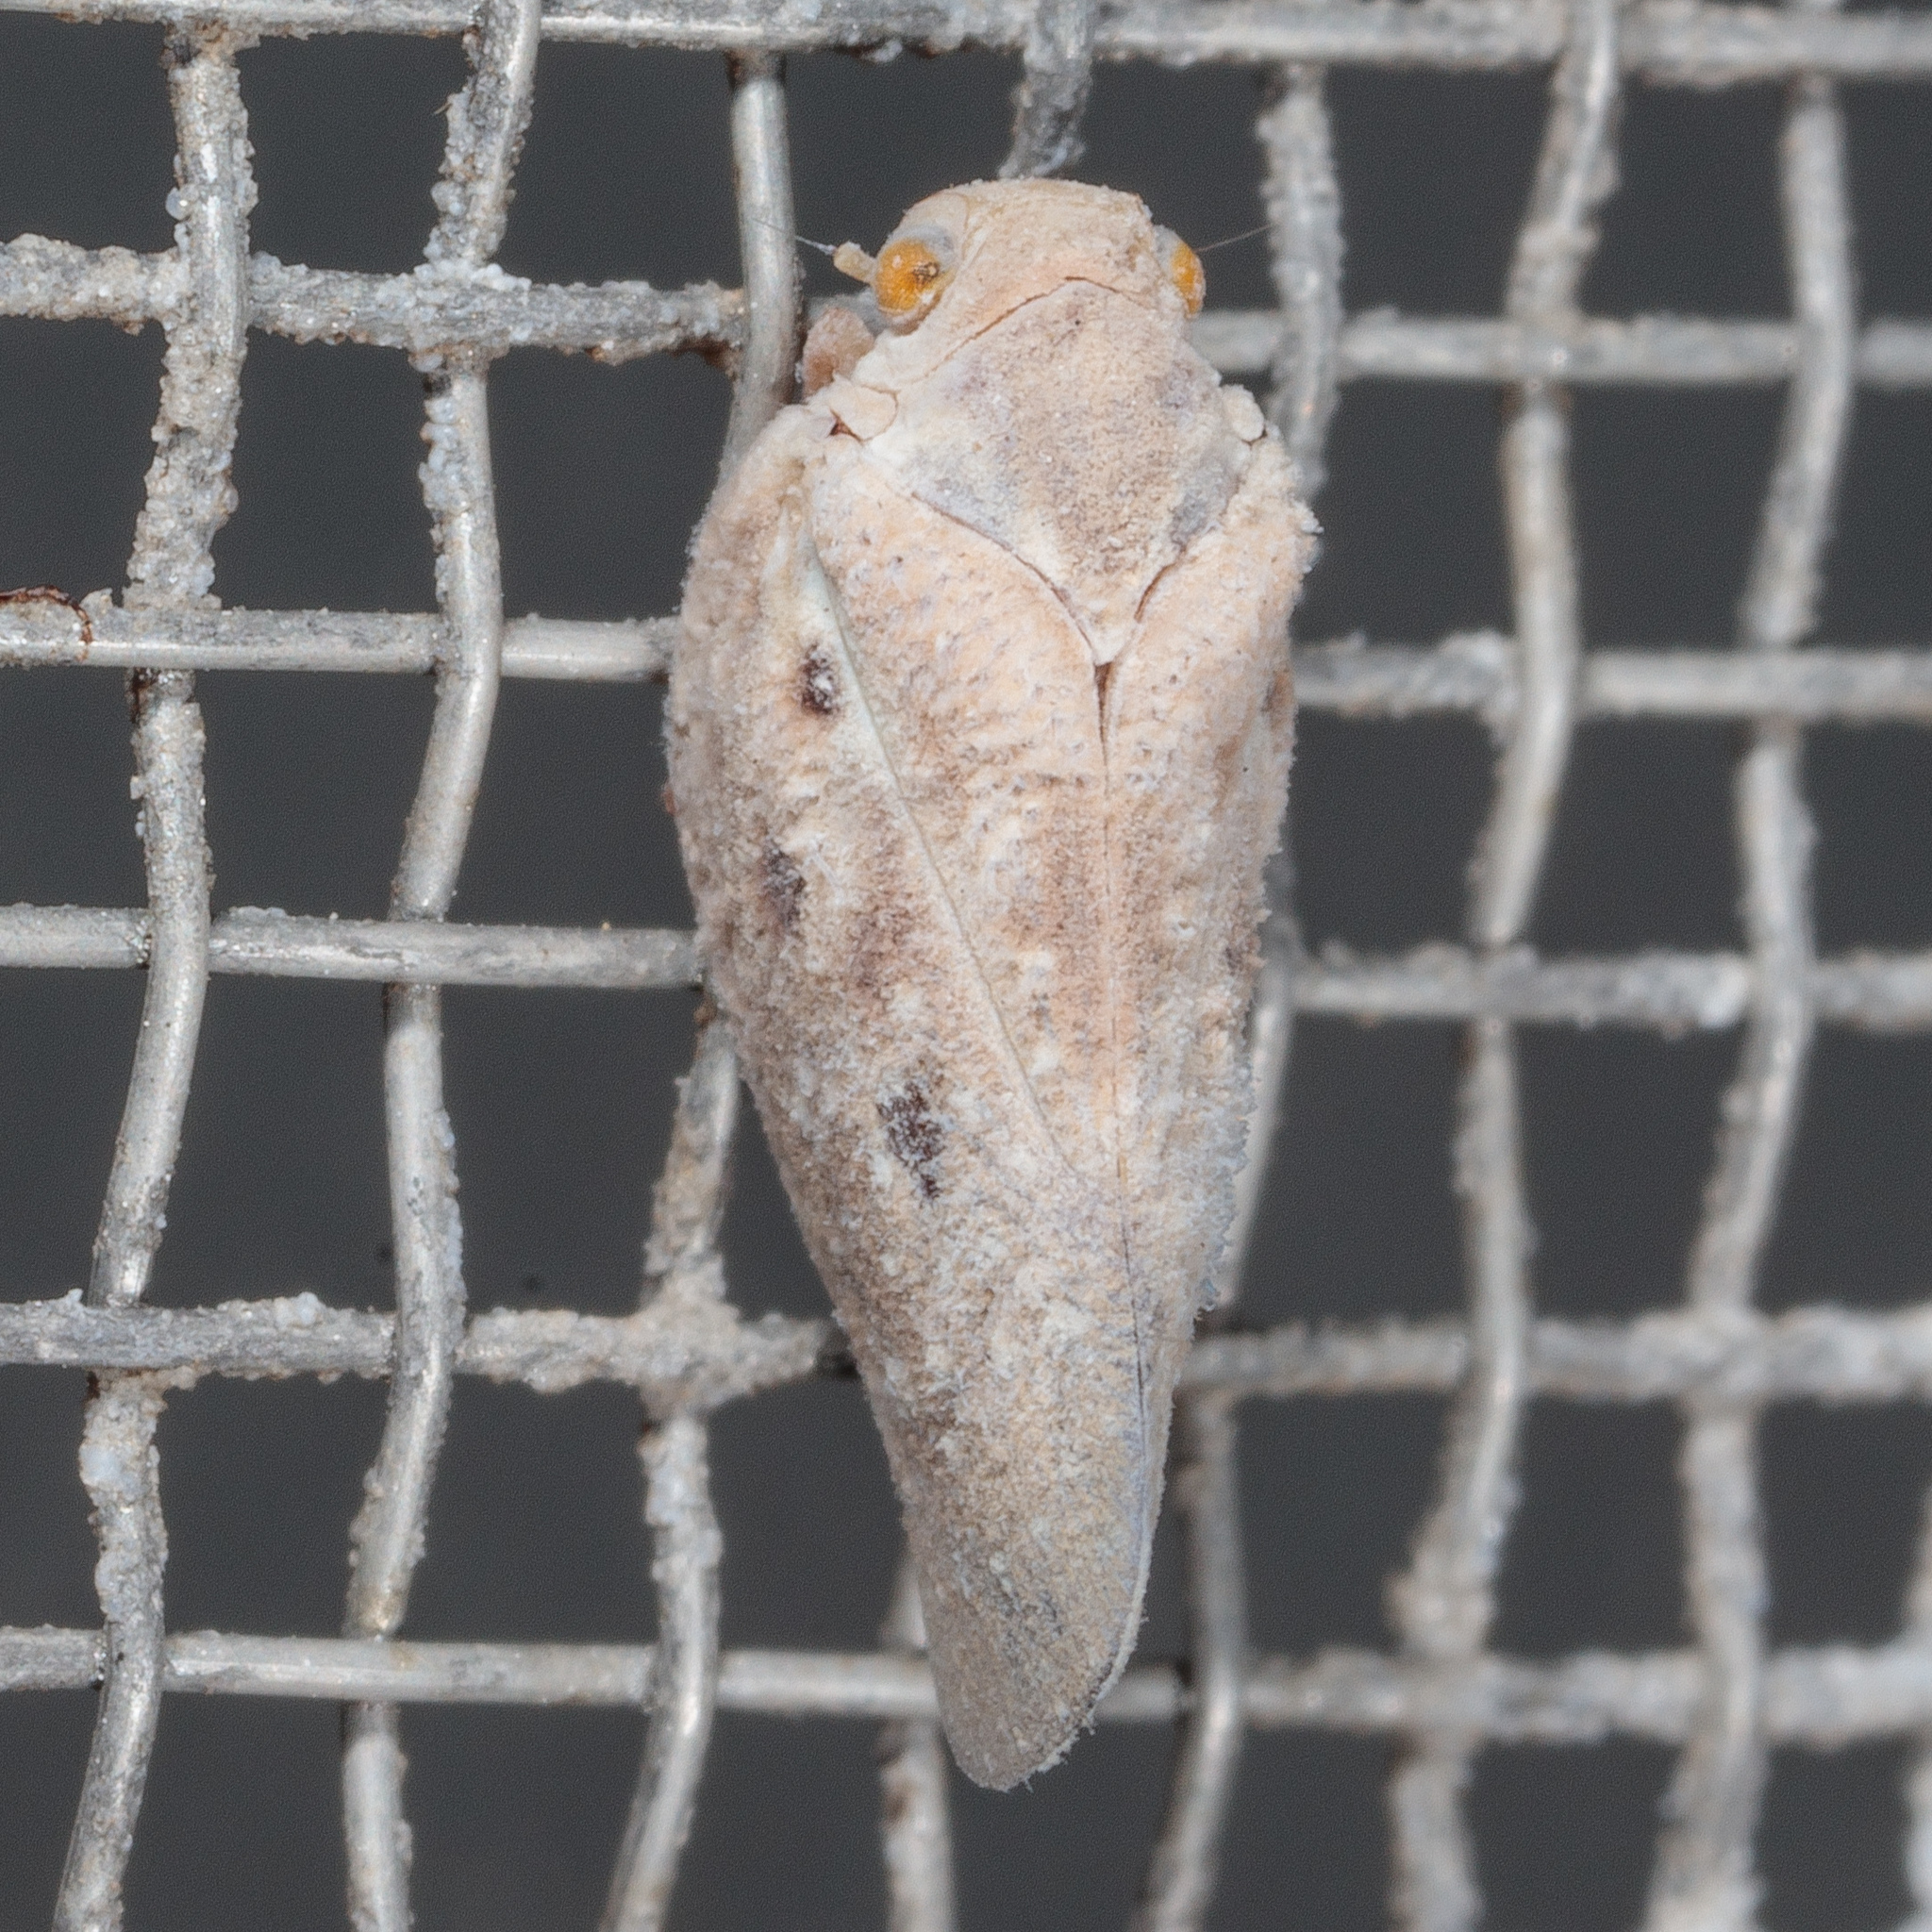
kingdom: Animalia
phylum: Arthropoda
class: Insecta
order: Hemiptera
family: Flatidae
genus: Metcalfa
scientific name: Metcalfa pruinosa
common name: Citrus flatid planthopper
